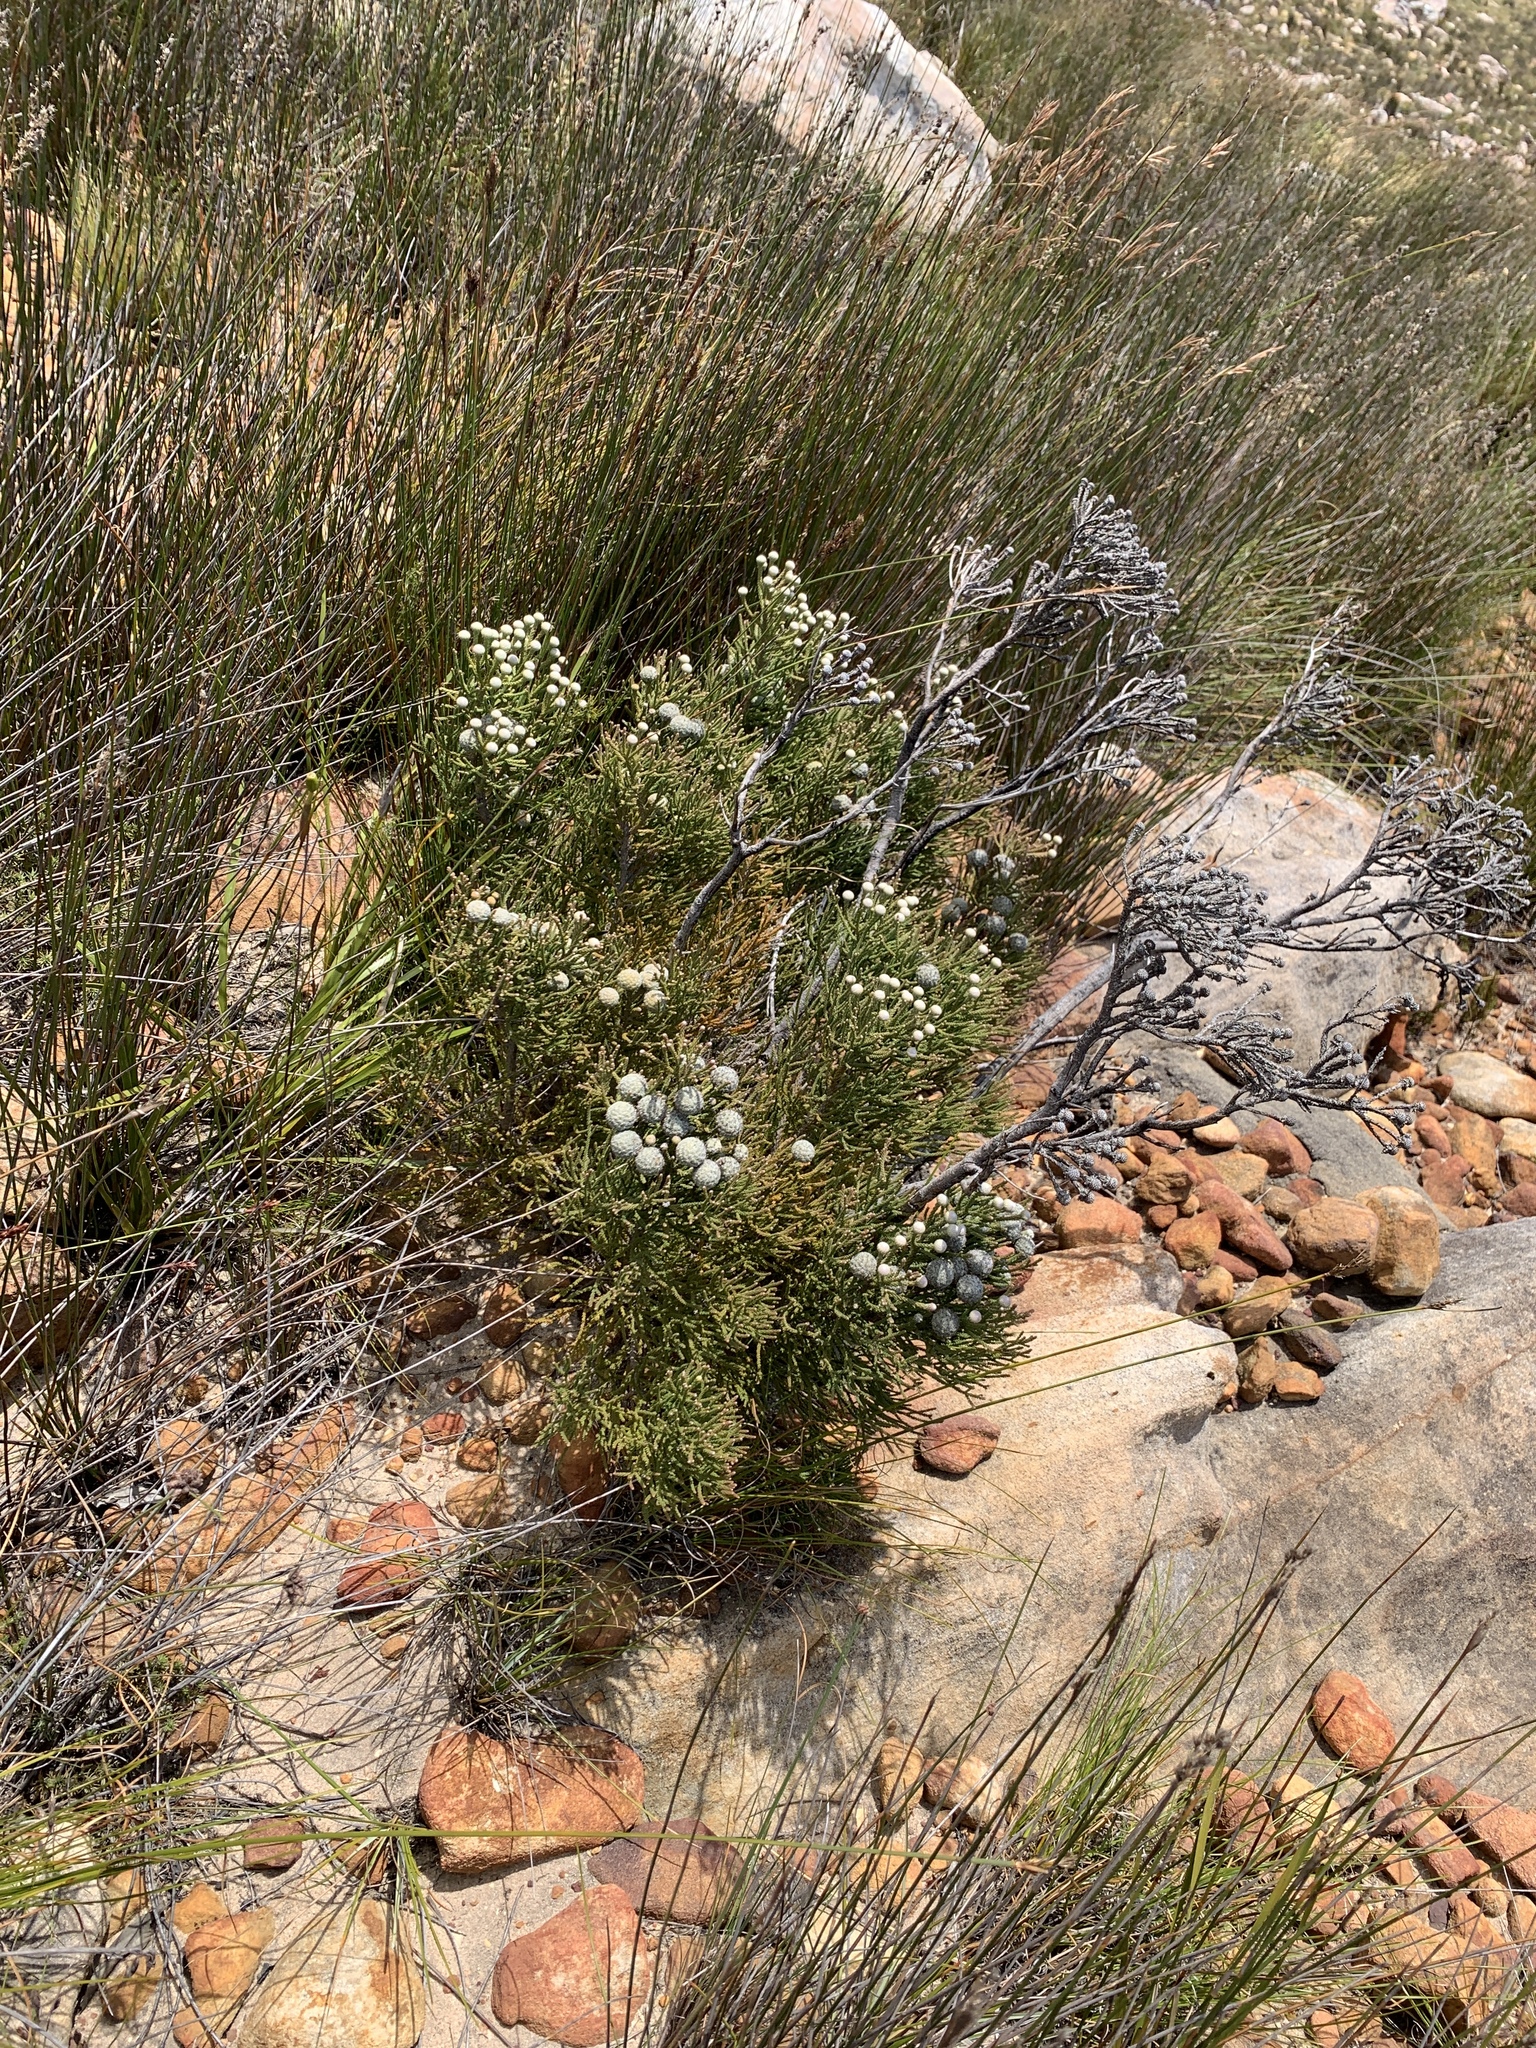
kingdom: Plantae
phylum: Tracheophyta
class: Magnoliopsida
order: Bruniales
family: Bruniaceae
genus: Brunia
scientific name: Brunia noduliflora
